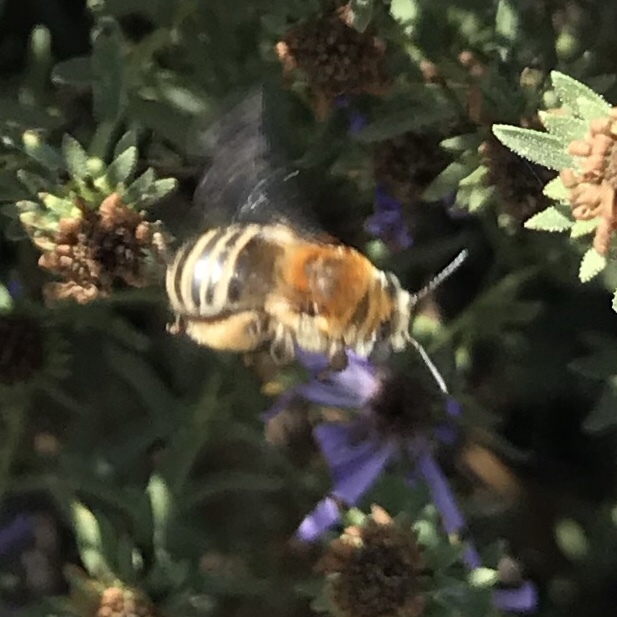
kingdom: Animalia
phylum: Arthropoda
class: Insecta
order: Hymenoptera
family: Apidae
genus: Melissodes
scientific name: Melissodes tepaneca
